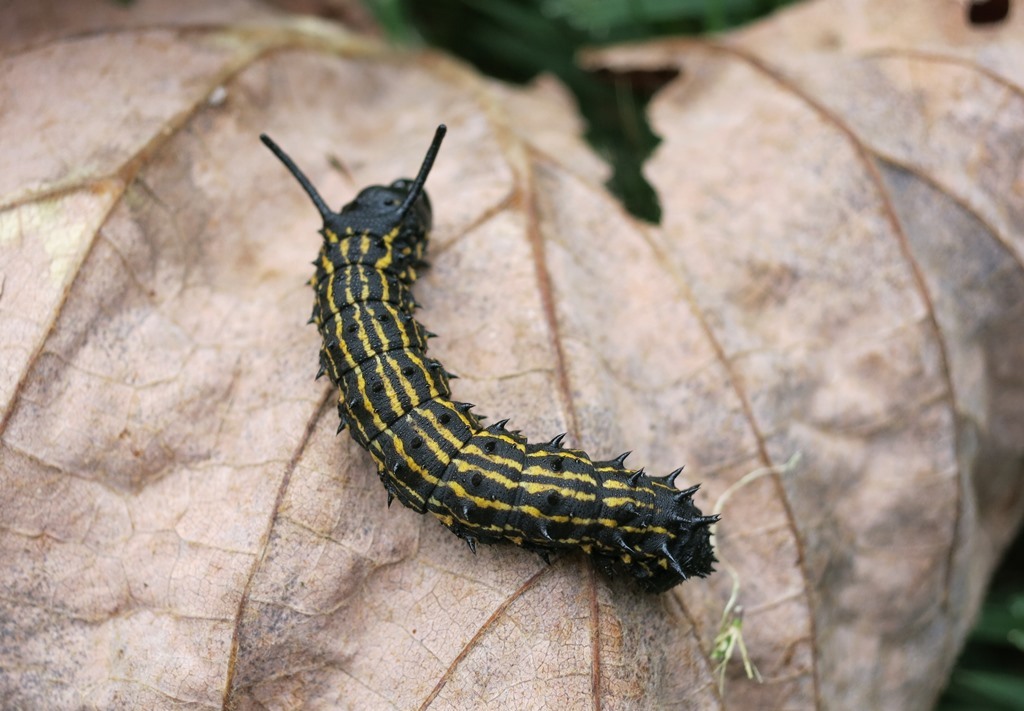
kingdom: Animalia
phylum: Arthropoda
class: Insecta
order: Lepidoptera
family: Saturniidae
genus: Anisota
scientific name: Anisota senatoria
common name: Orange-striped oakworm moth
